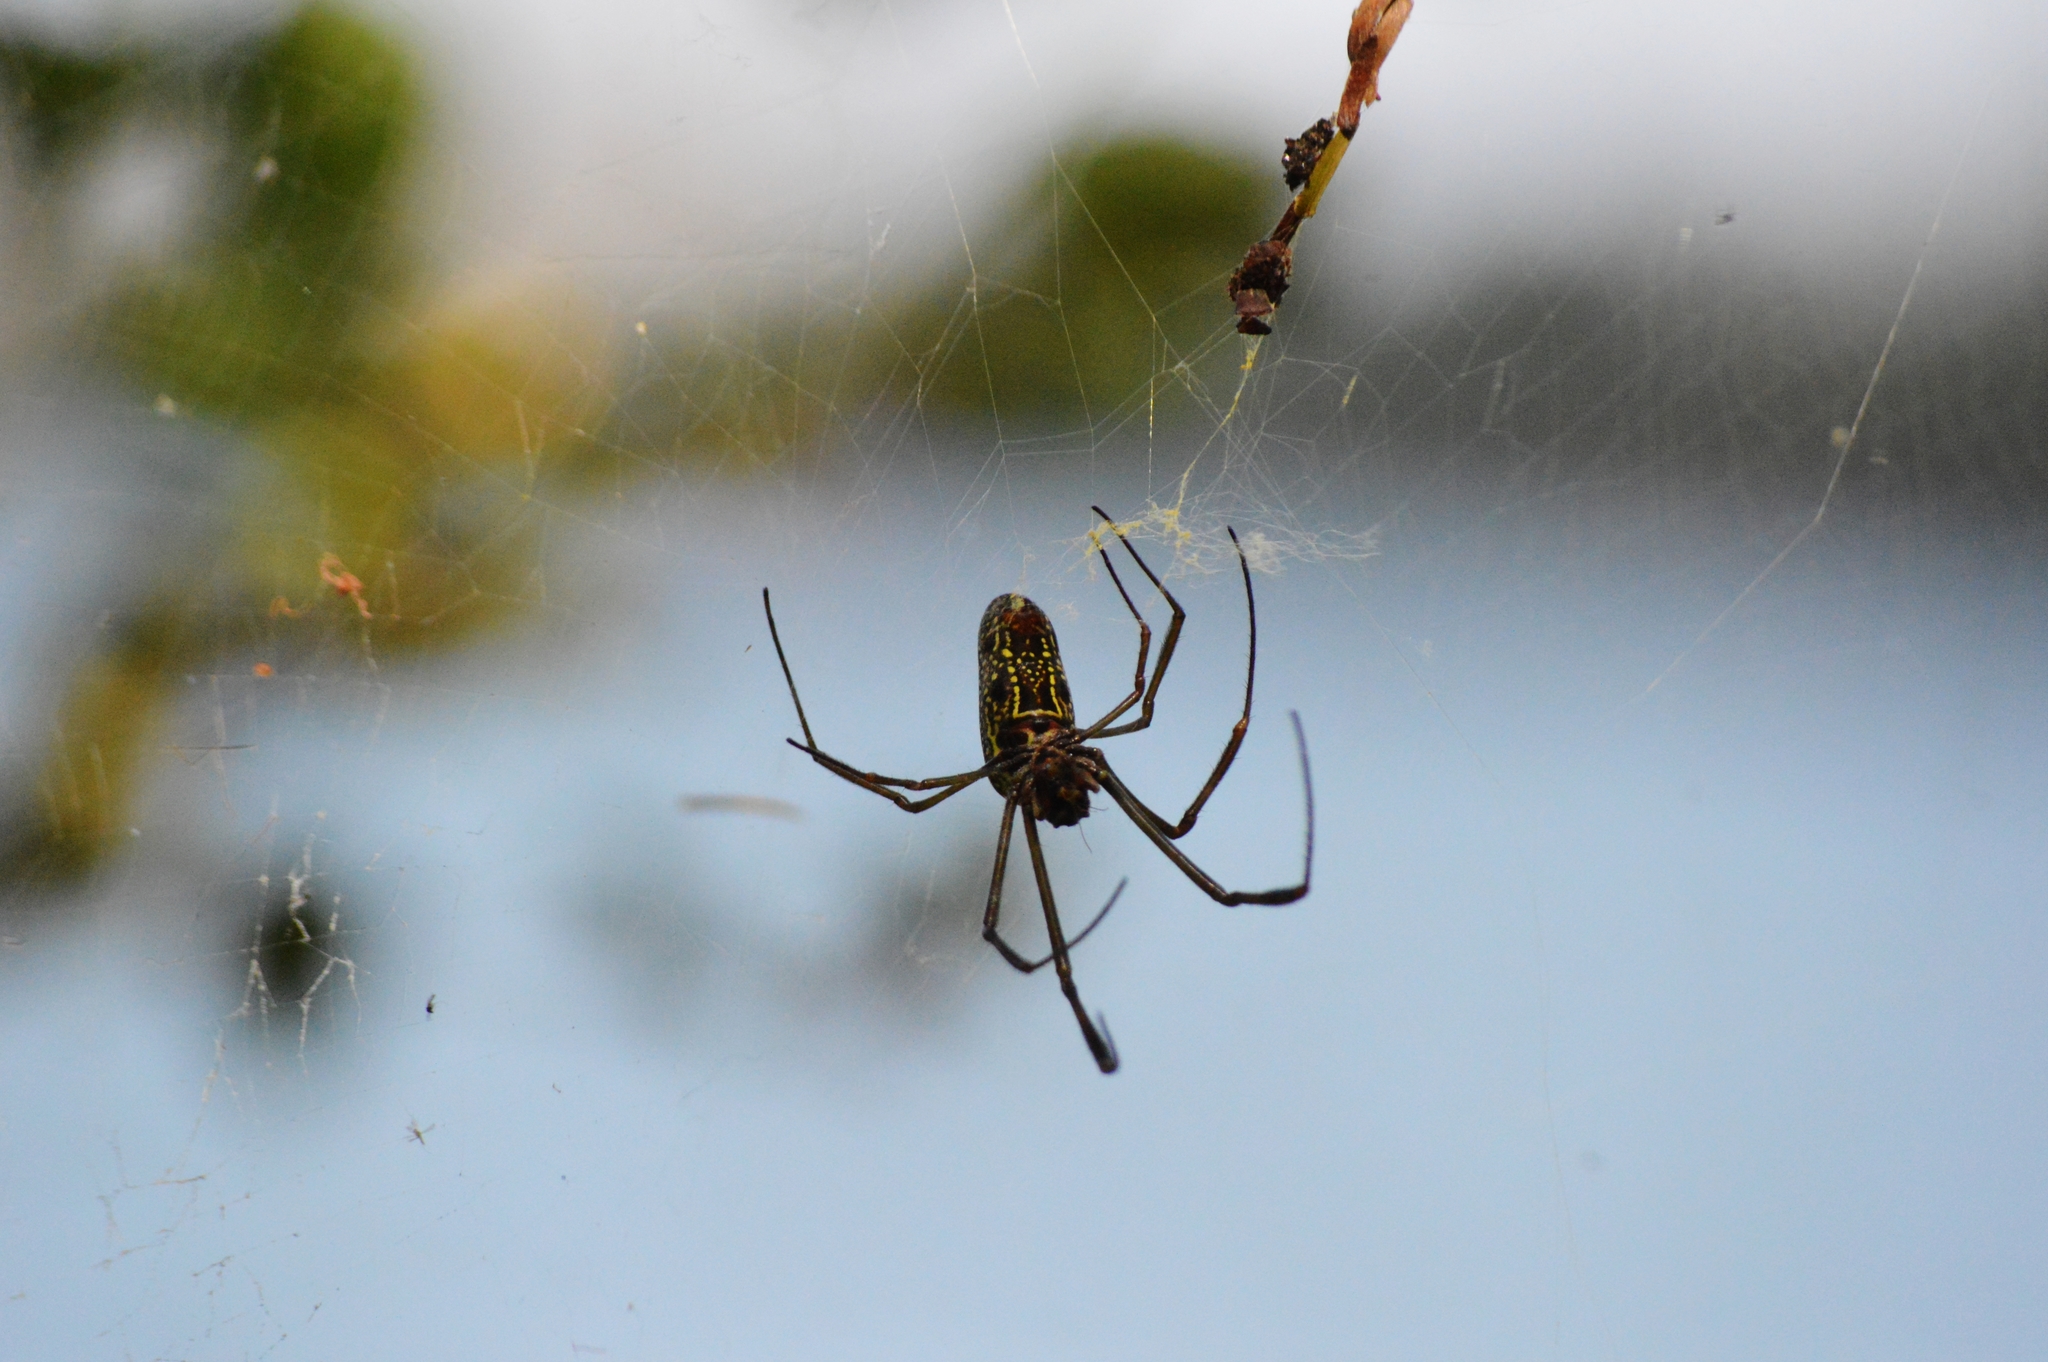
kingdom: Animalia
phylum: Arthropoda
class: Arachnida
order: Araneae
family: Araneidae
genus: Trichonephila
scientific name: Trichonephila clavipes
